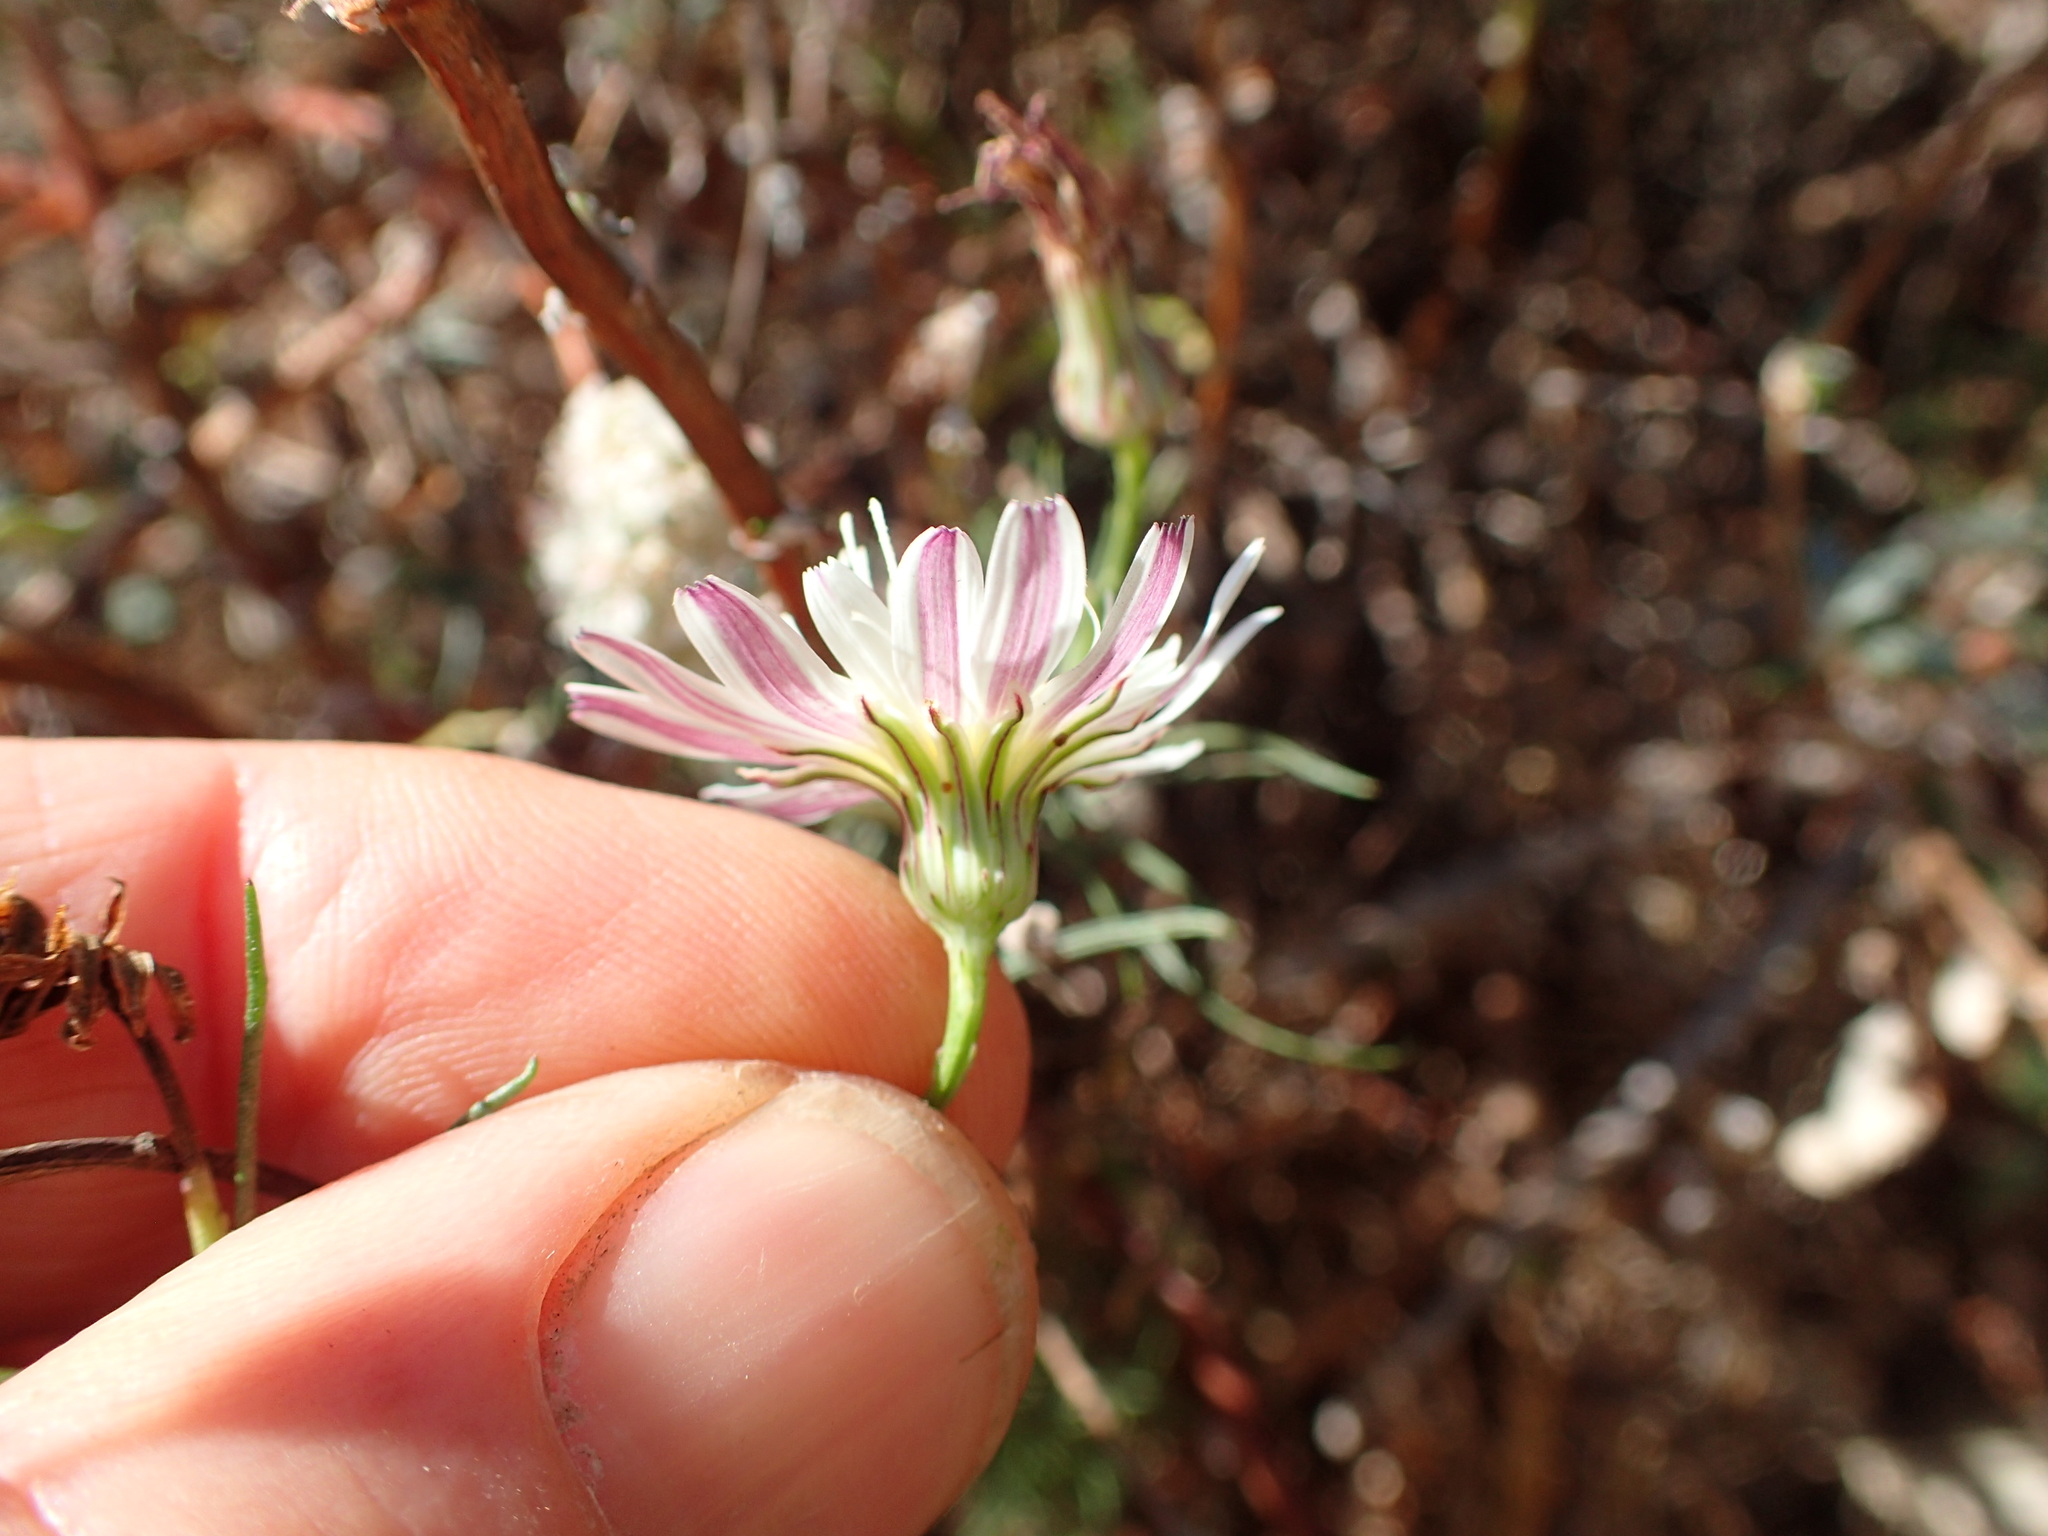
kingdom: Plantae
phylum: Tracheophyta
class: Magnoliopsida
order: Asterales
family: Asteraceae
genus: Malacothrix
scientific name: Malacothrix saxatilis
